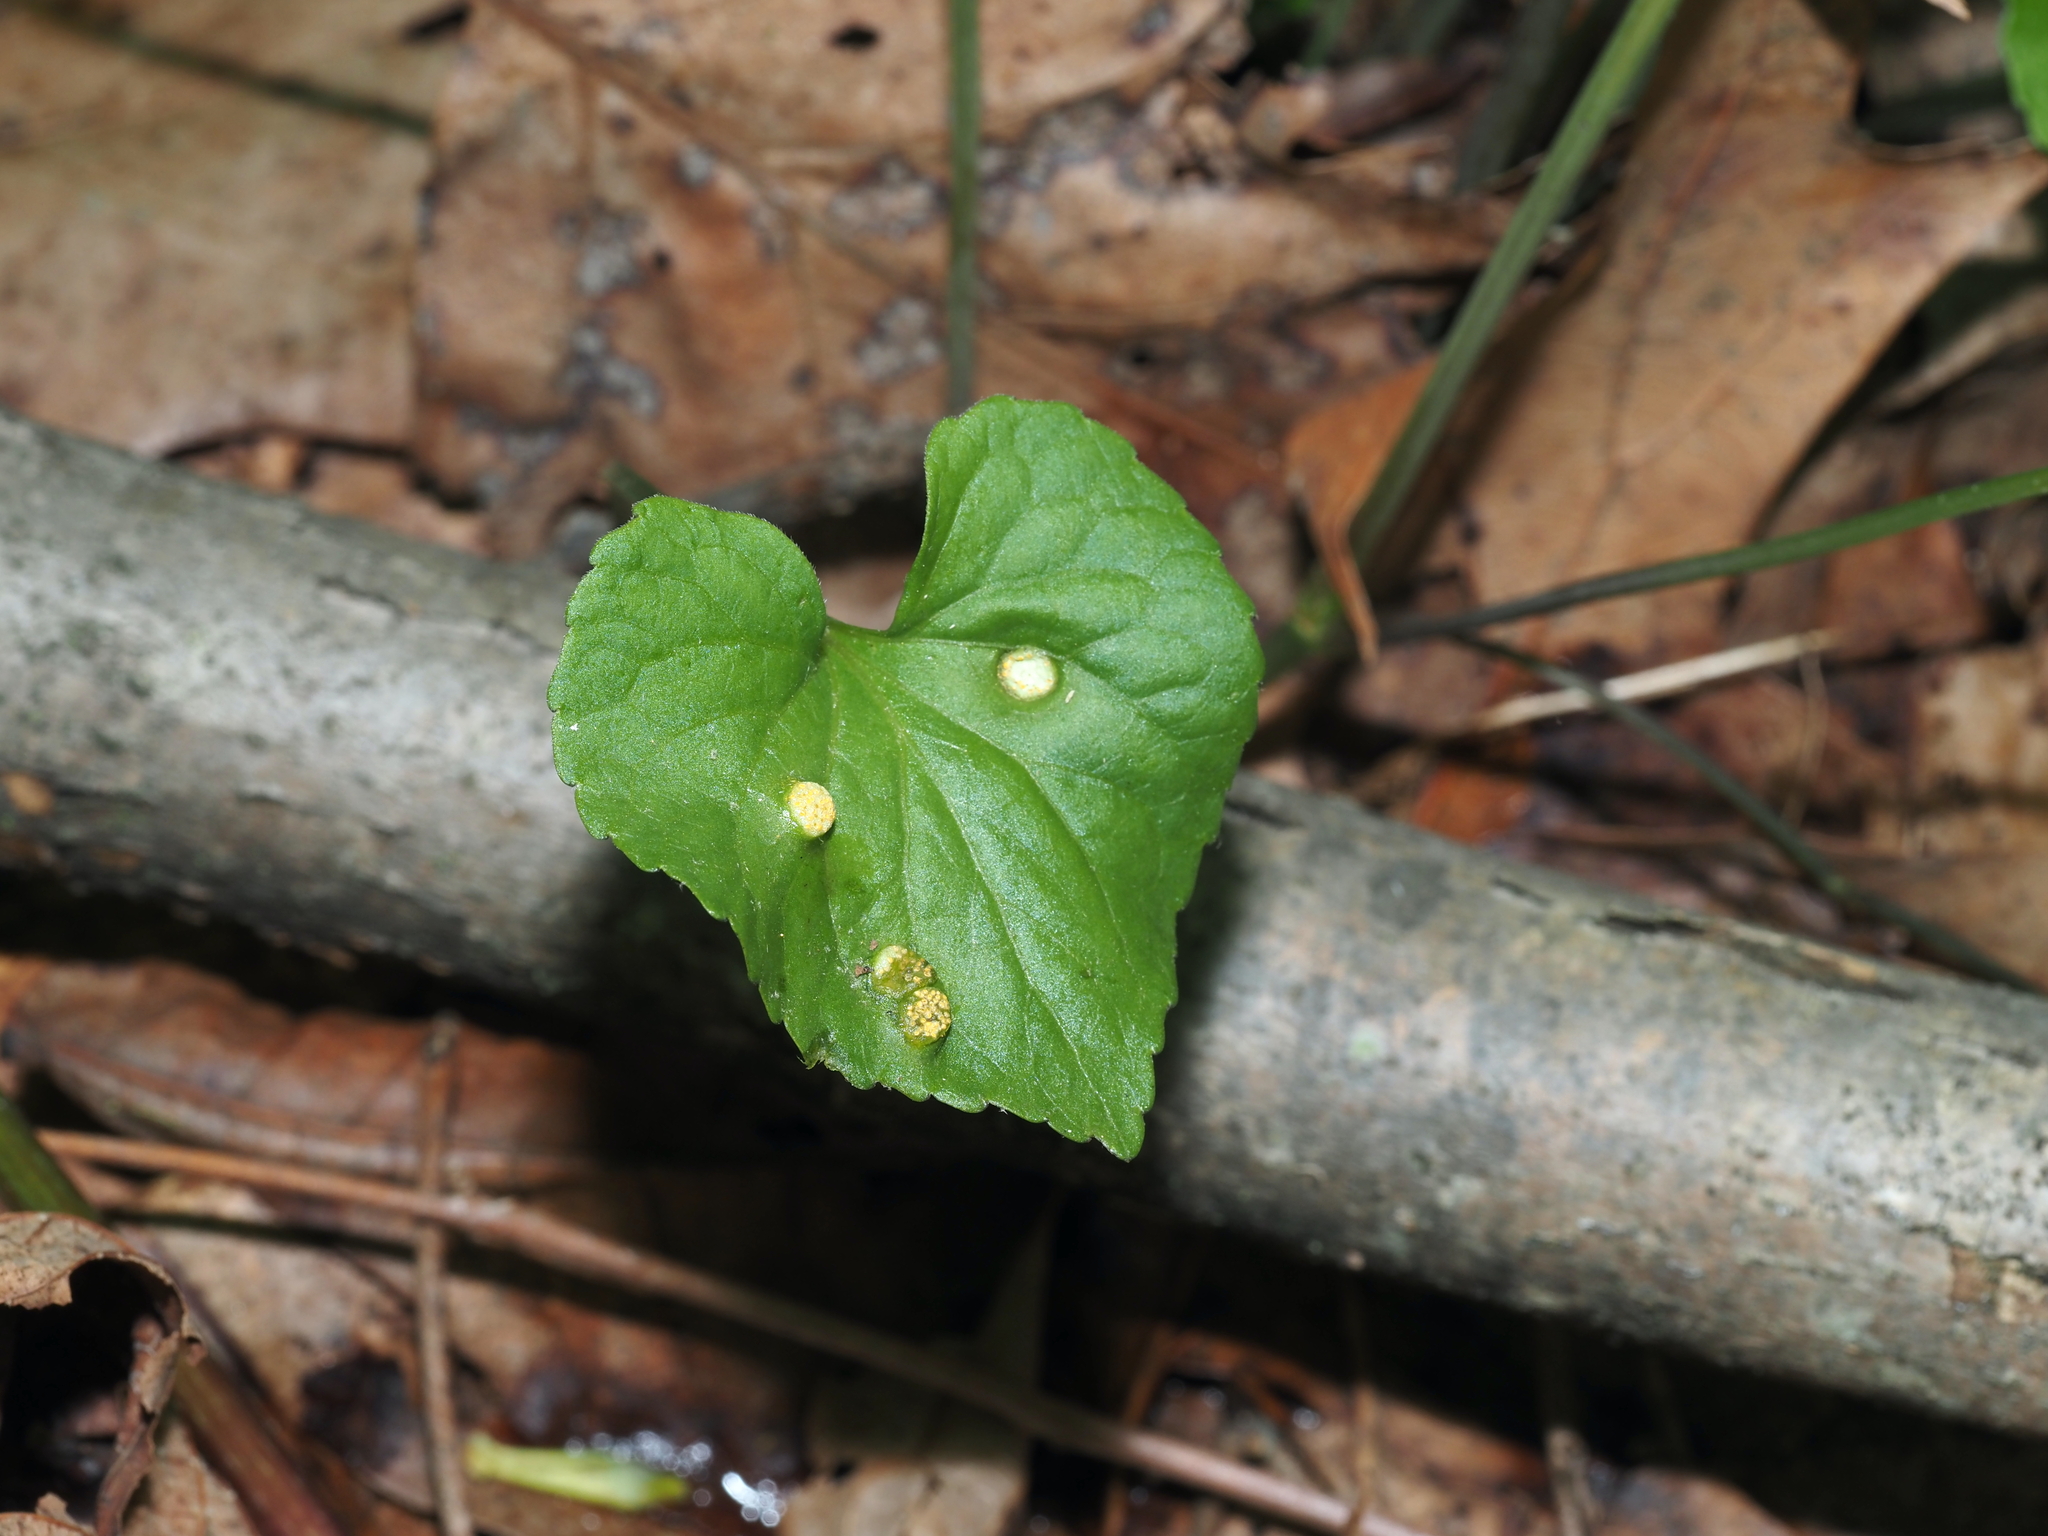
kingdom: Fungi
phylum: Basidiomycota
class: Pucciniomycetes
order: Pucciniales
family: Pucciniaceae
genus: Puccinia
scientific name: Puccinia violae
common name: Violet rust
